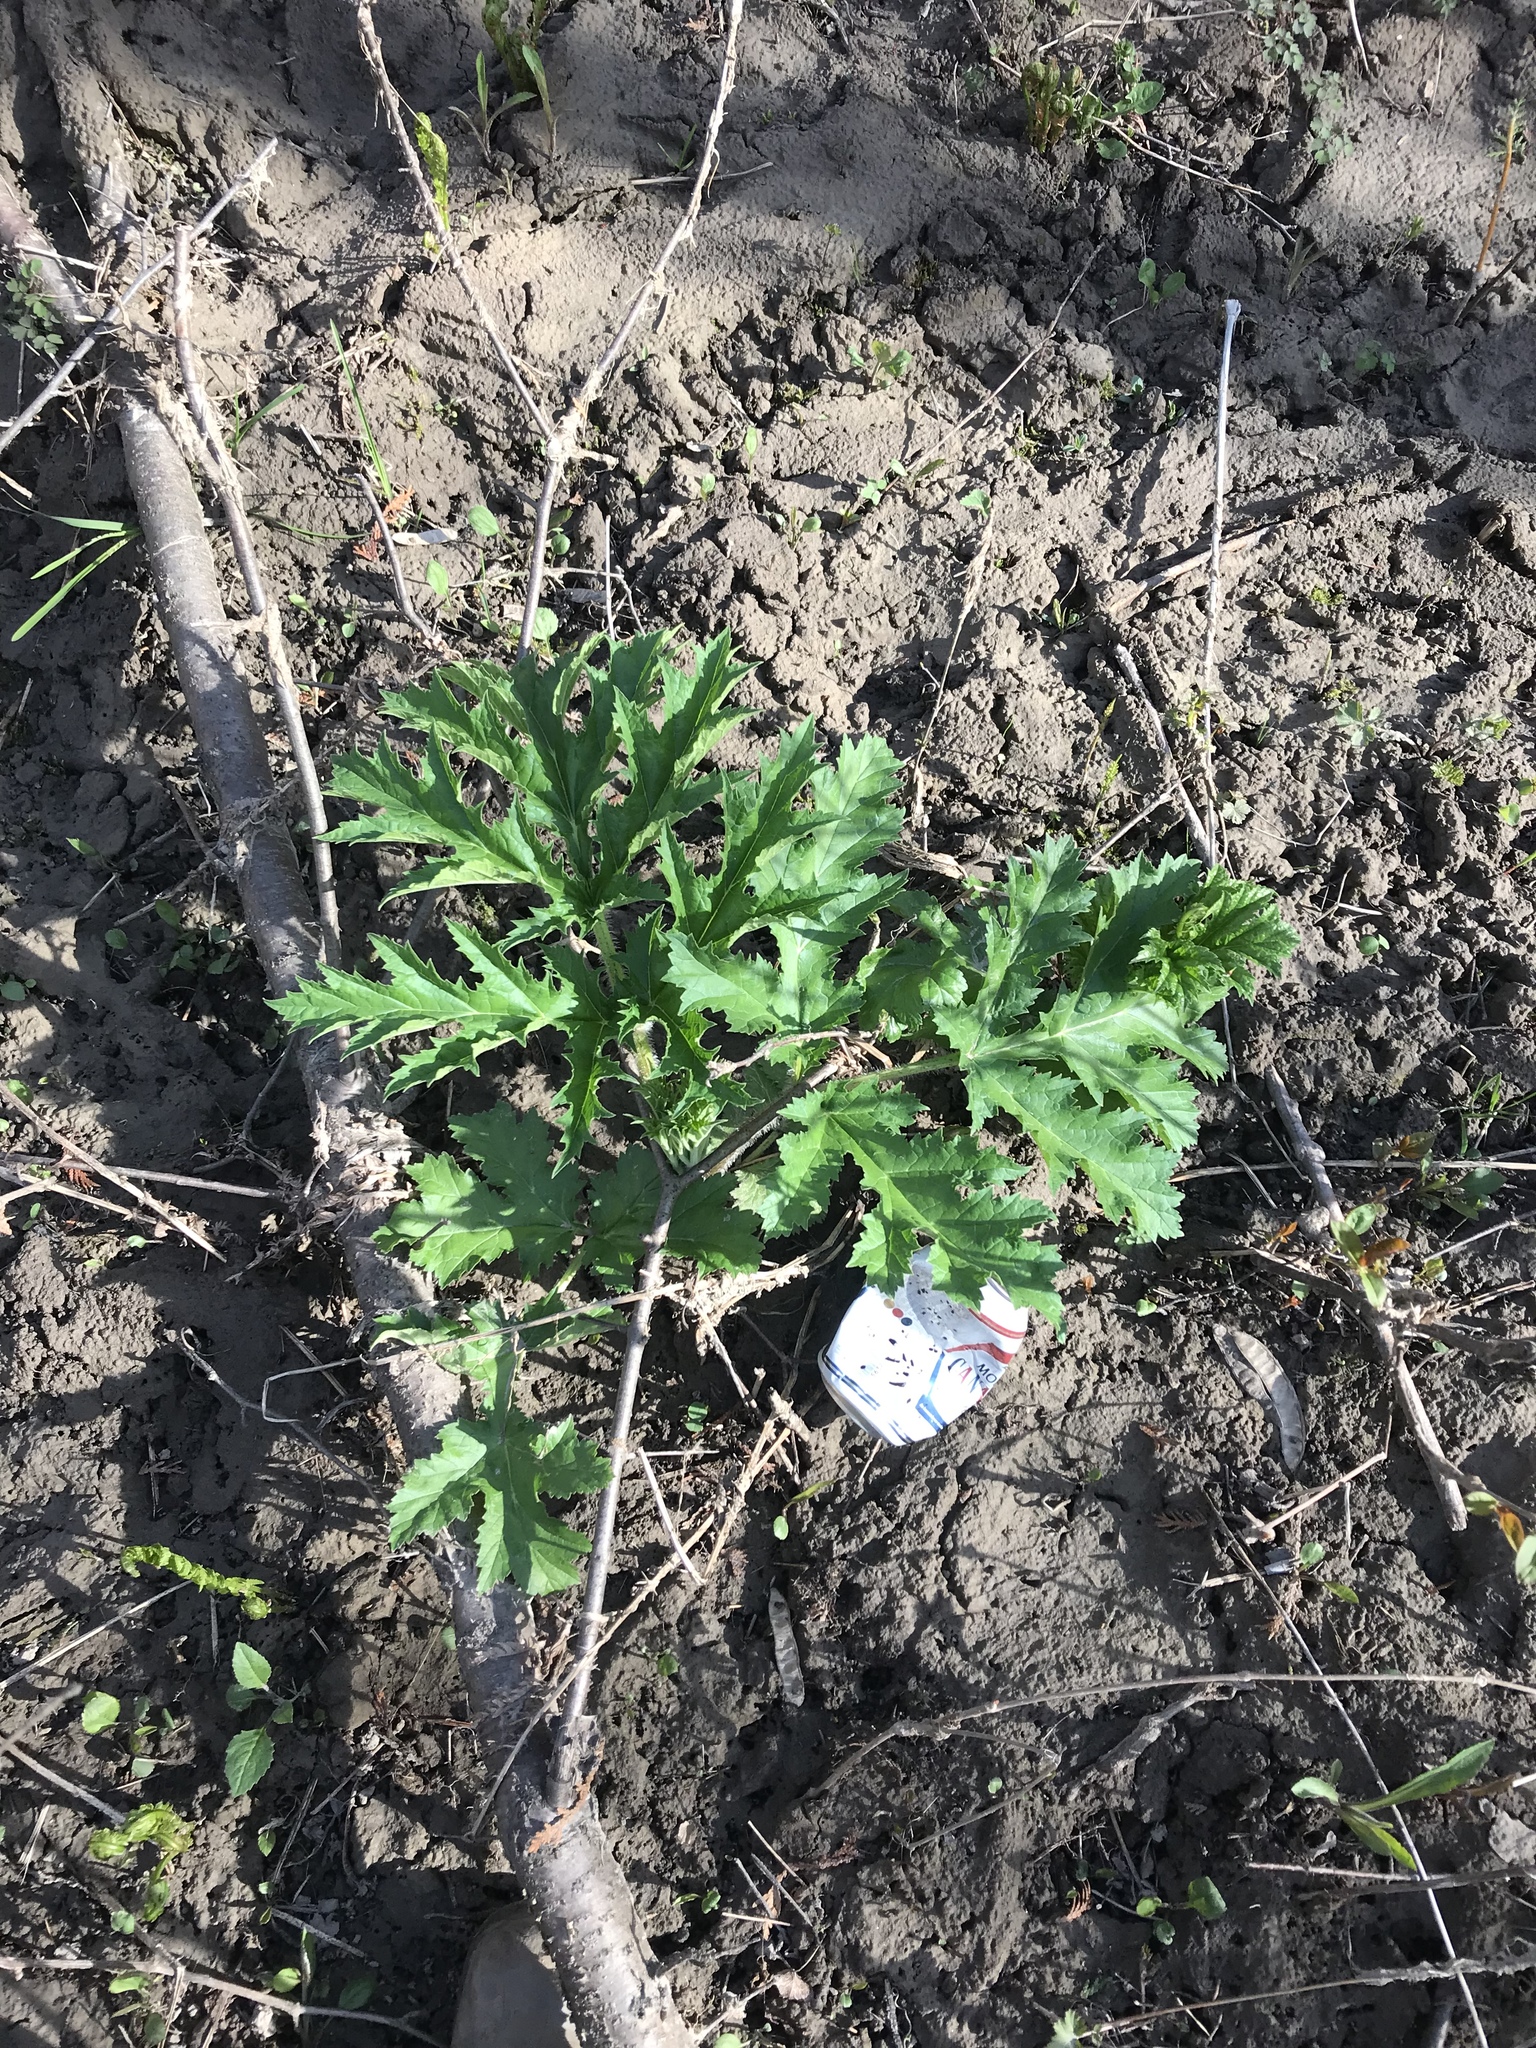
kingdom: Plantae
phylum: Tracheophyta
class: Magnoliopsida
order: Apiales
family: Apiaceae
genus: Heracleum
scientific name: Heracleum mantegazzianum
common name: Giant hogweed
